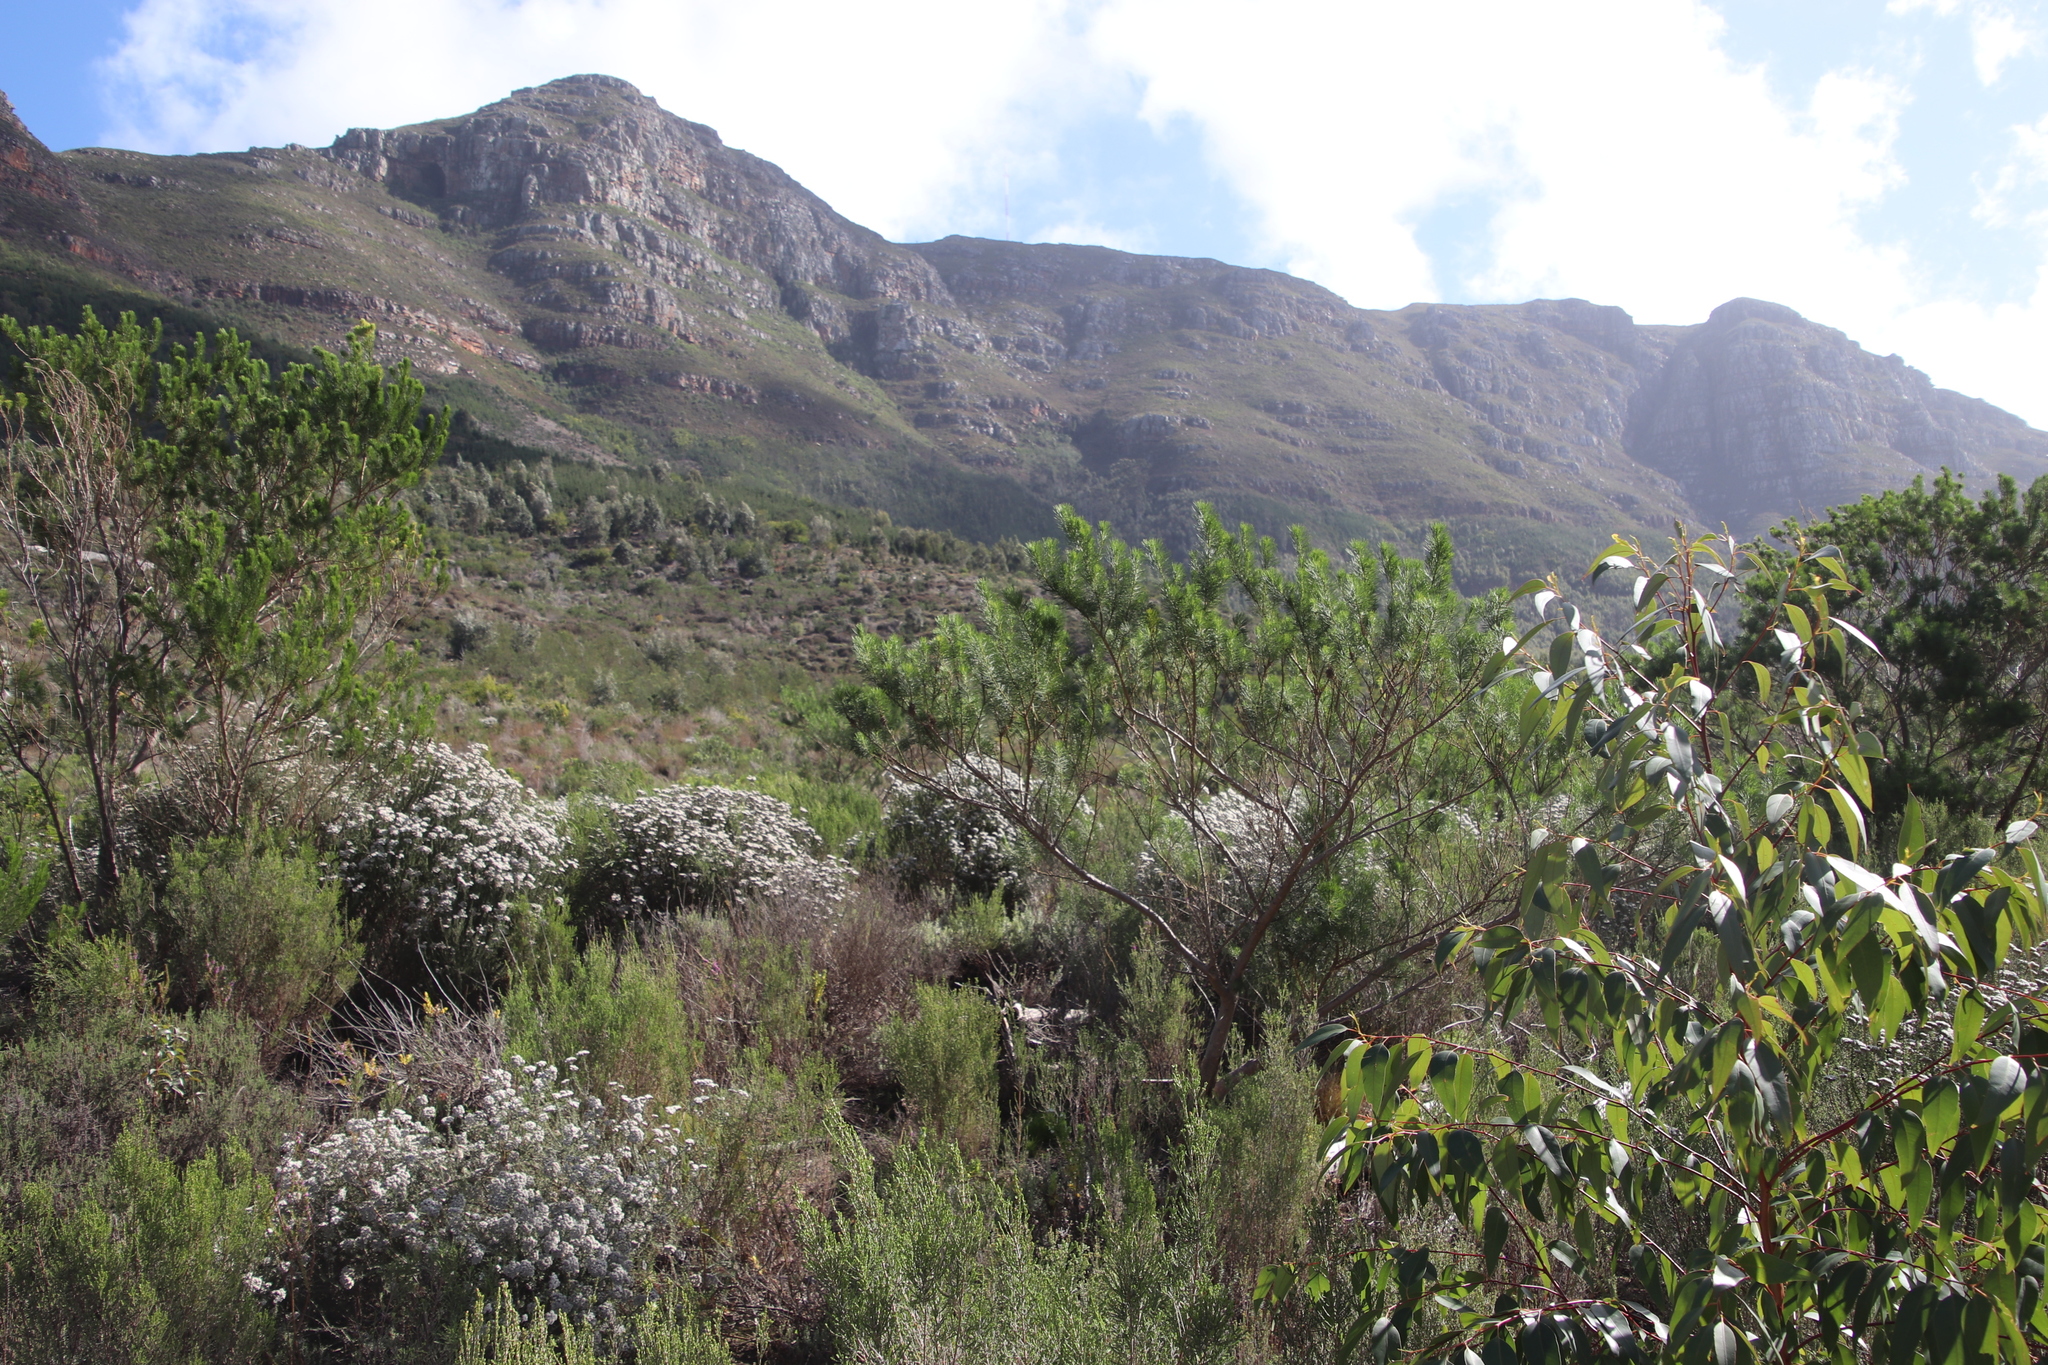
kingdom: Plantae
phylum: Tracheophyta
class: Magnoliopsida
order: Asterales
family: Asteraceae
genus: Metalasia
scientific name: Metalasia densa
